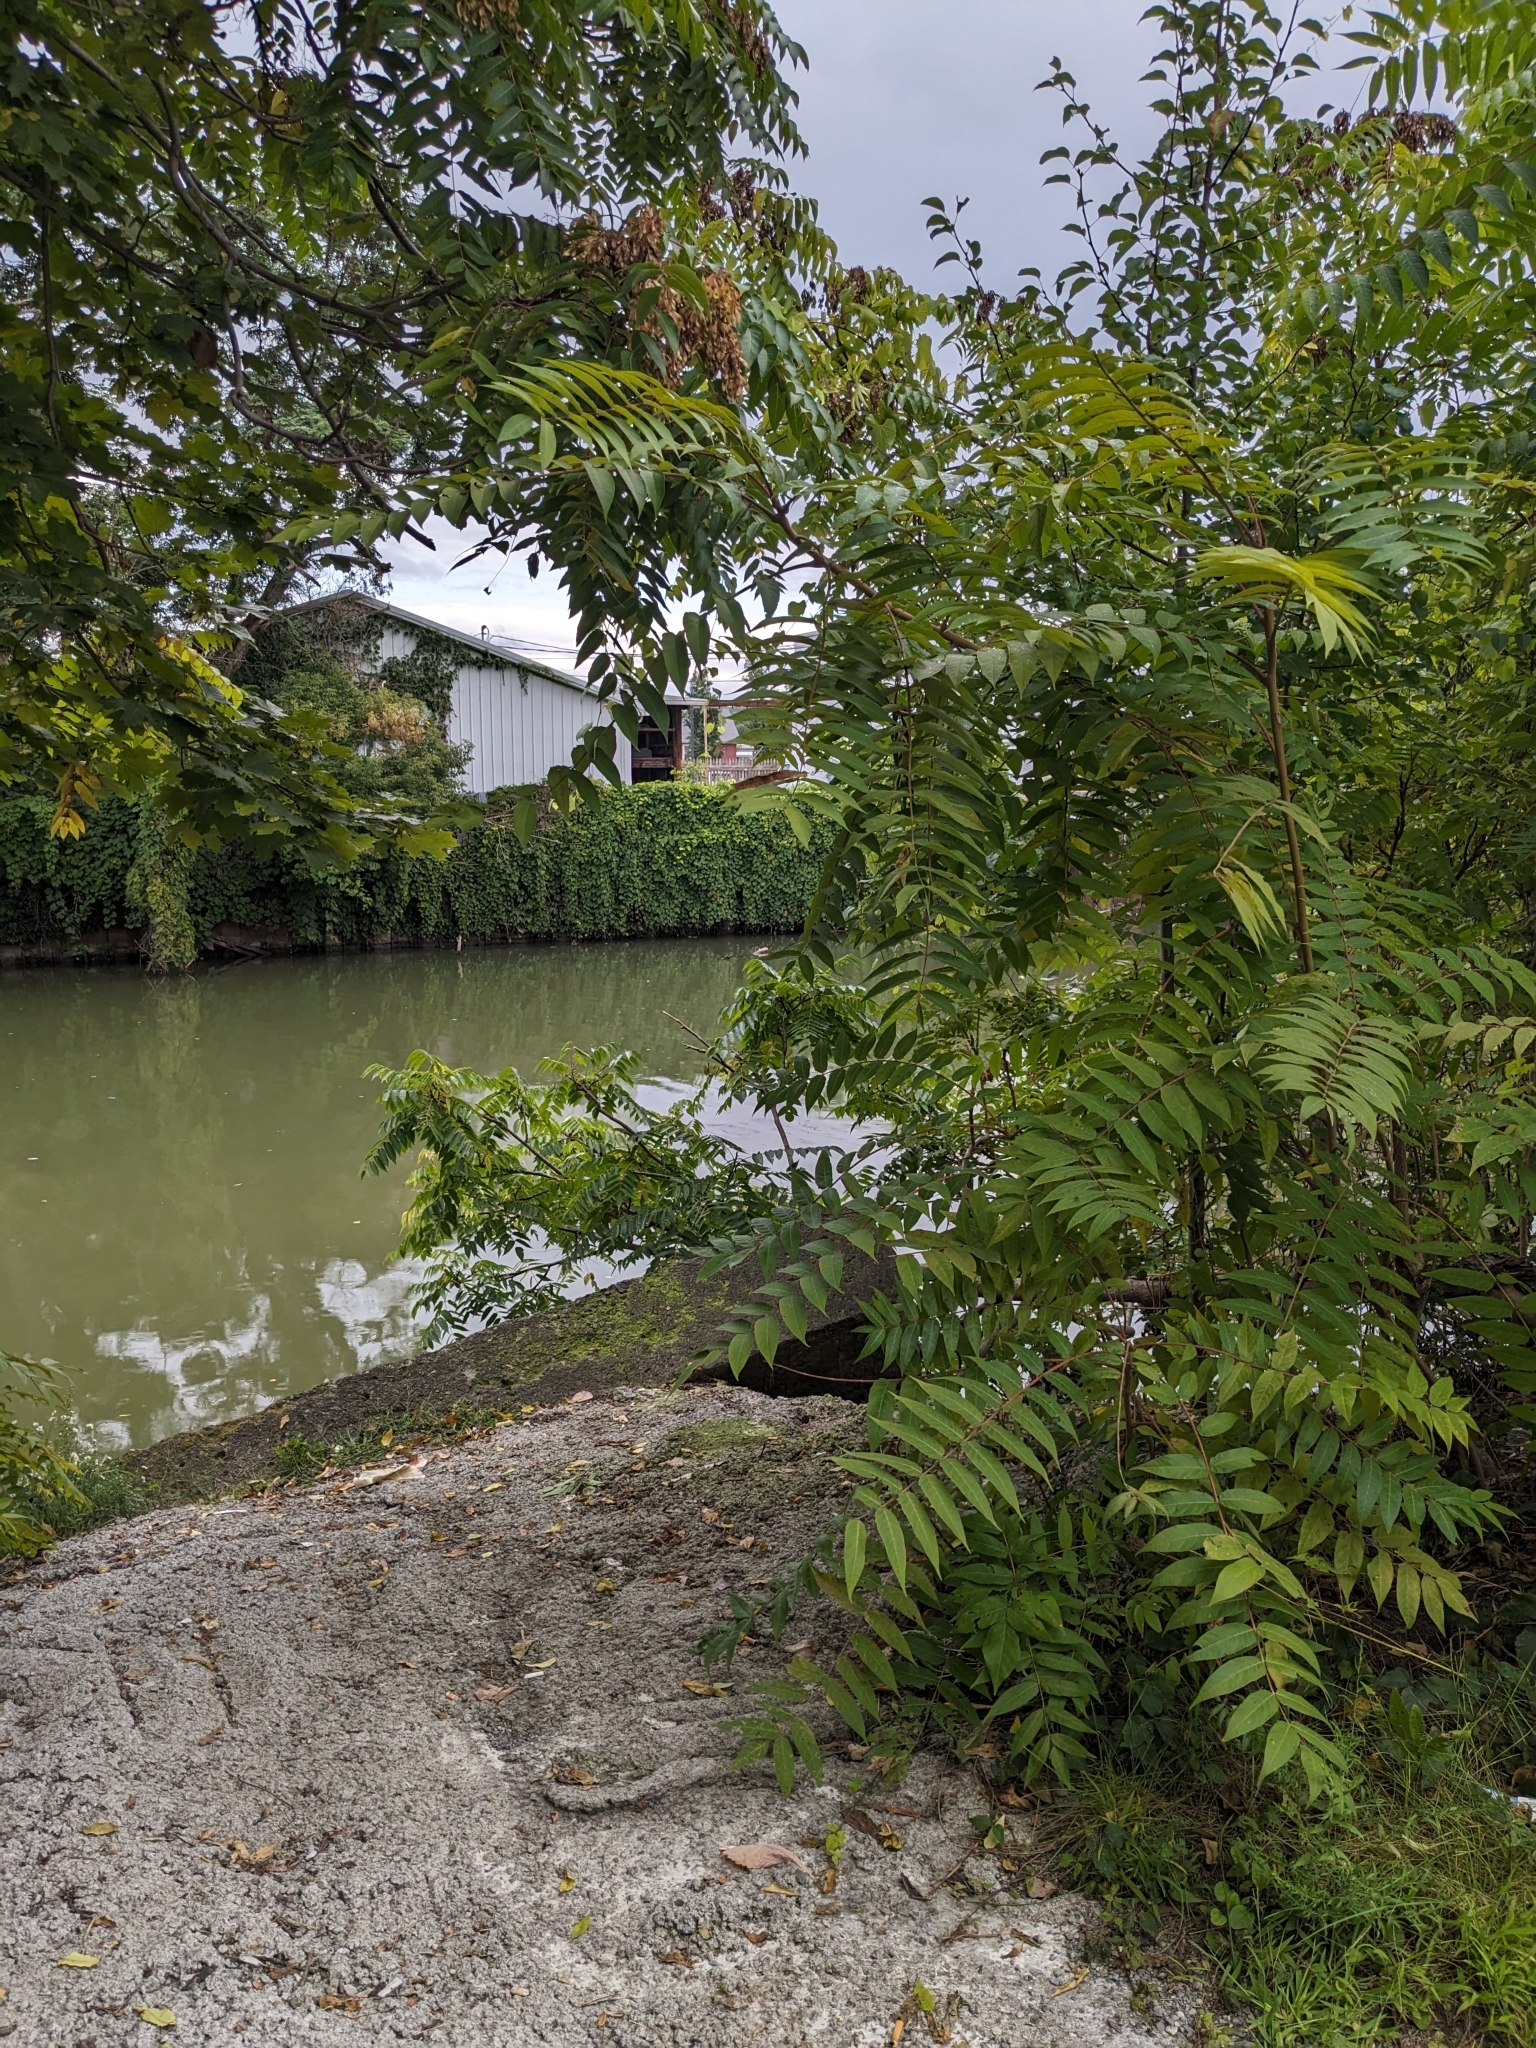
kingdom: Plantae
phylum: Tracheophyta
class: Magnoliopsida
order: Sapindales
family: Simaroubaceae
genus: Ailanthus
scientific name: Ailanthus altissima
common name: Tree-of-heaven
